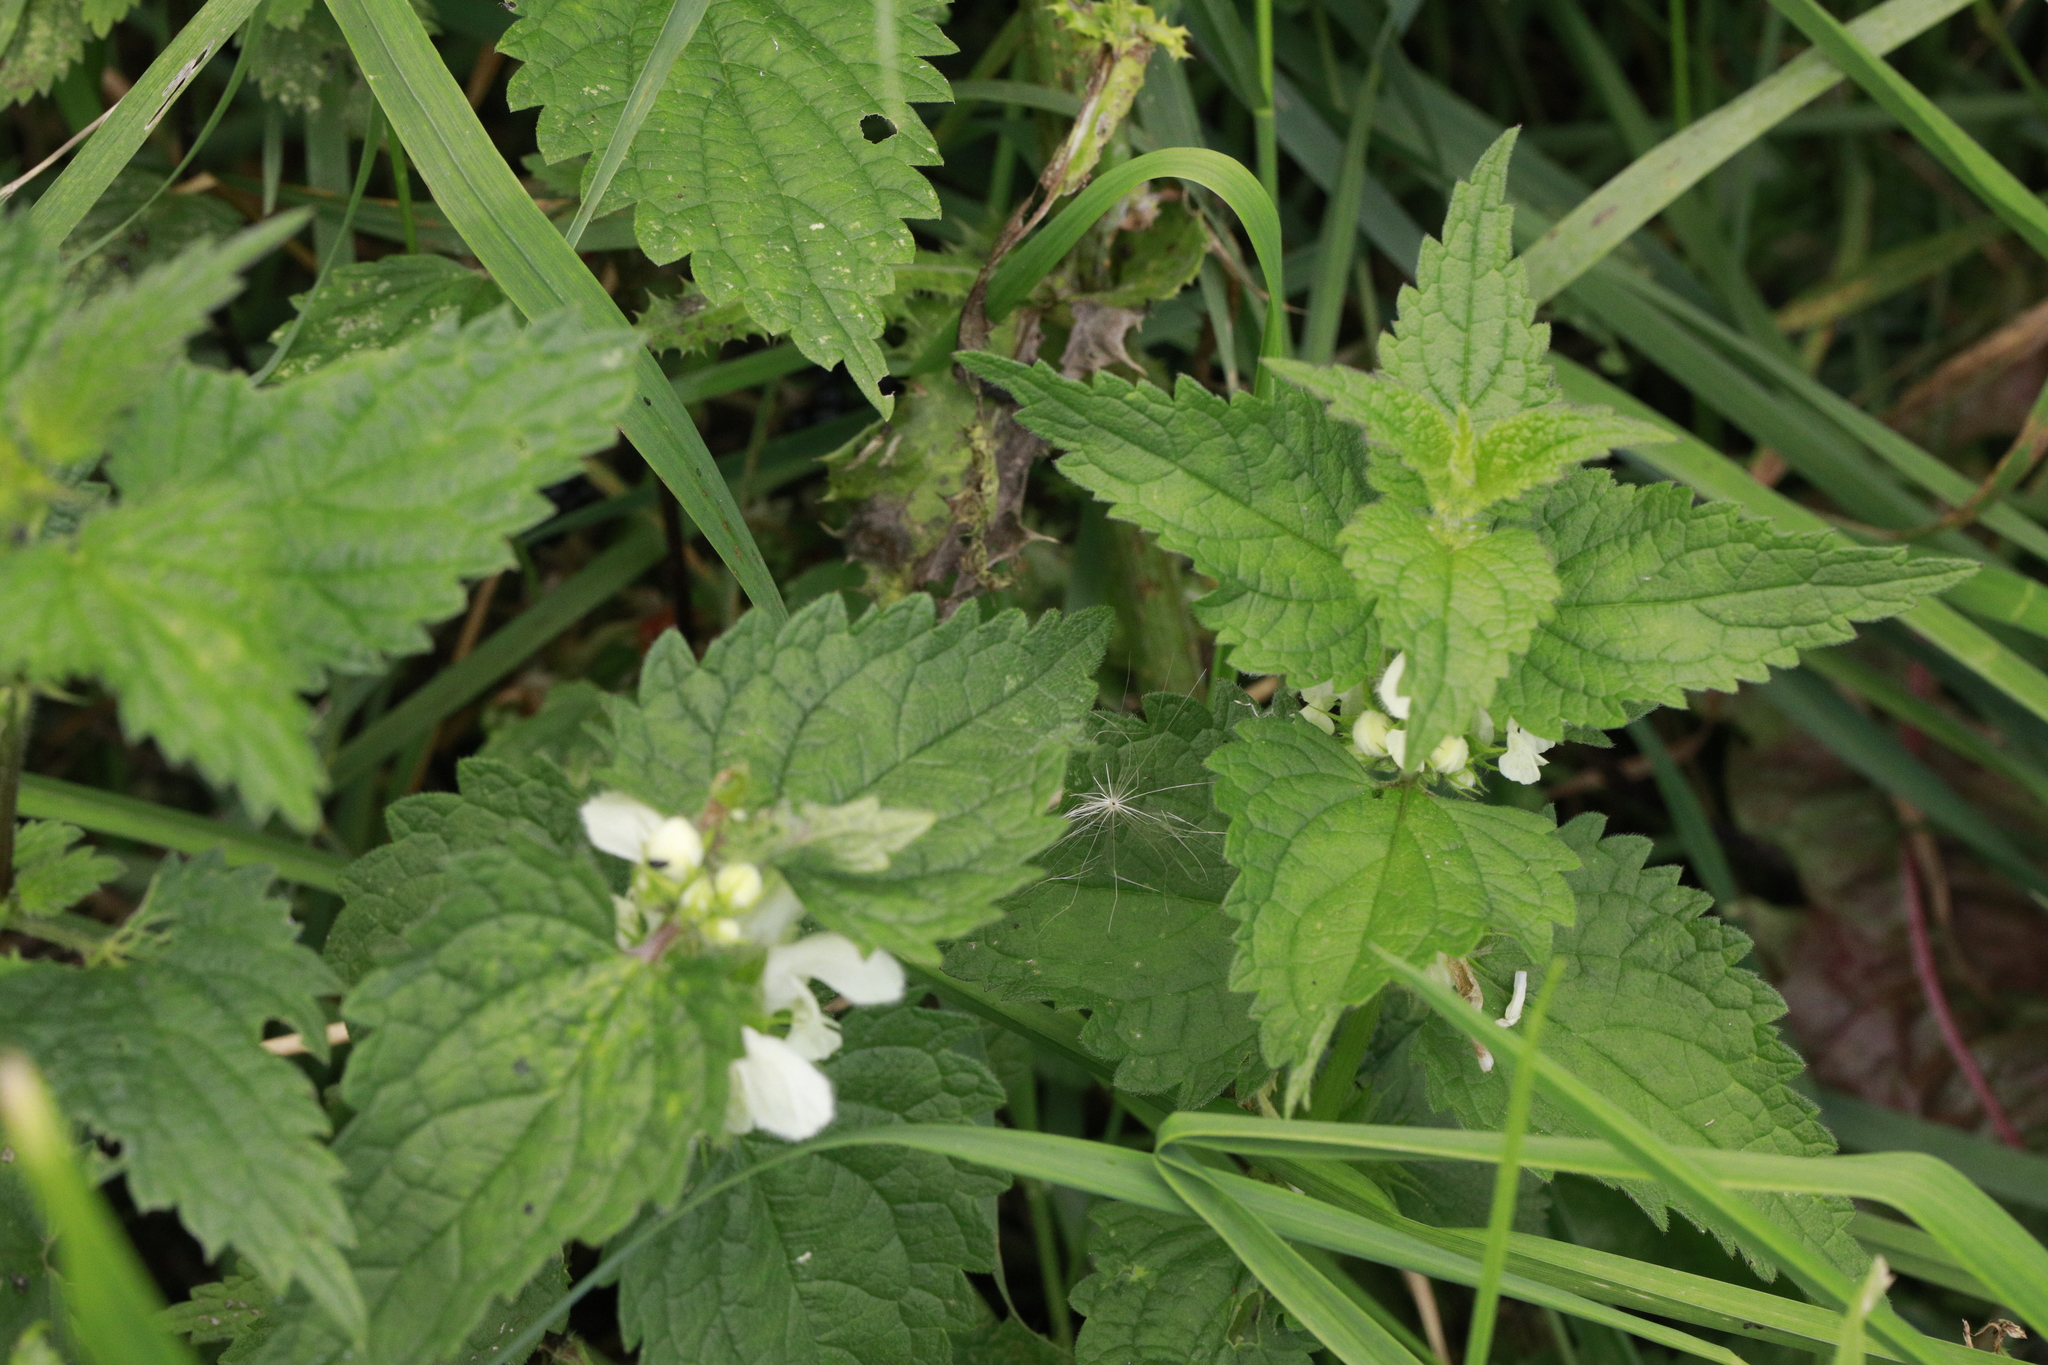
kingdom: Plantae
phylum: Tracheophyta
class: Magnoliopsida
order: Lamiales
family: Lamiaceae
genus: Lamium
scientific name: Lamium album
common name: White dead-nettle
